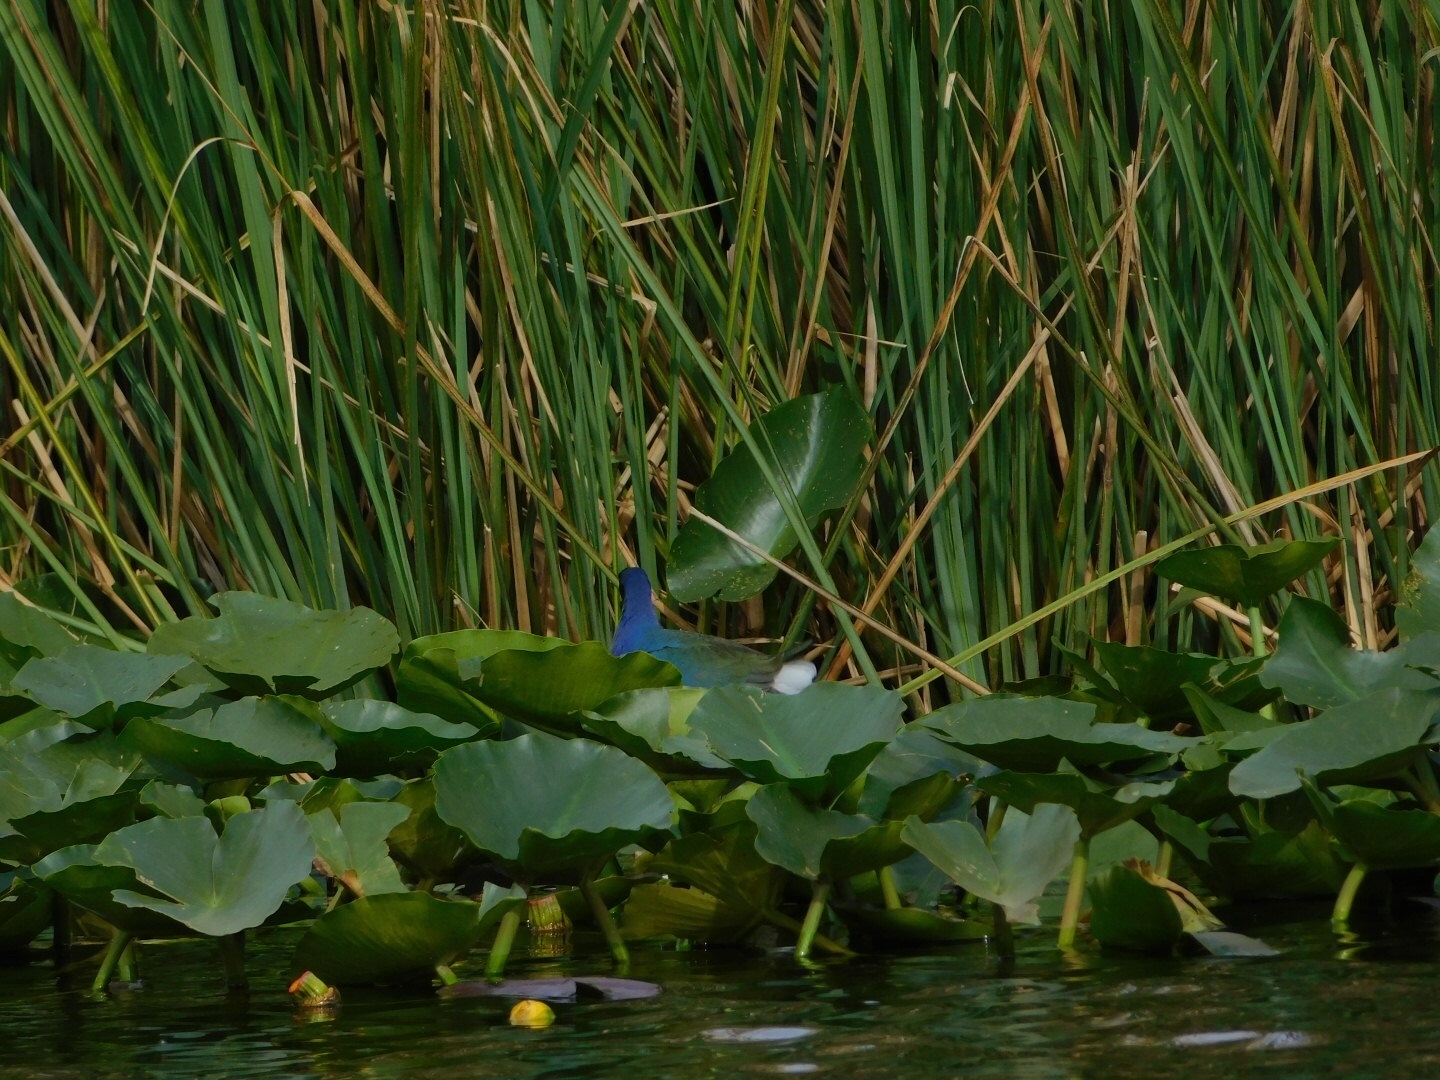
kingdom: Animalia
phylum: Chordata
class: Aves
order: Gruiformes
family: Rallidae
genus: Porphyrio
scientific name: Porphyrio martinica
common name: Purple gallinule
